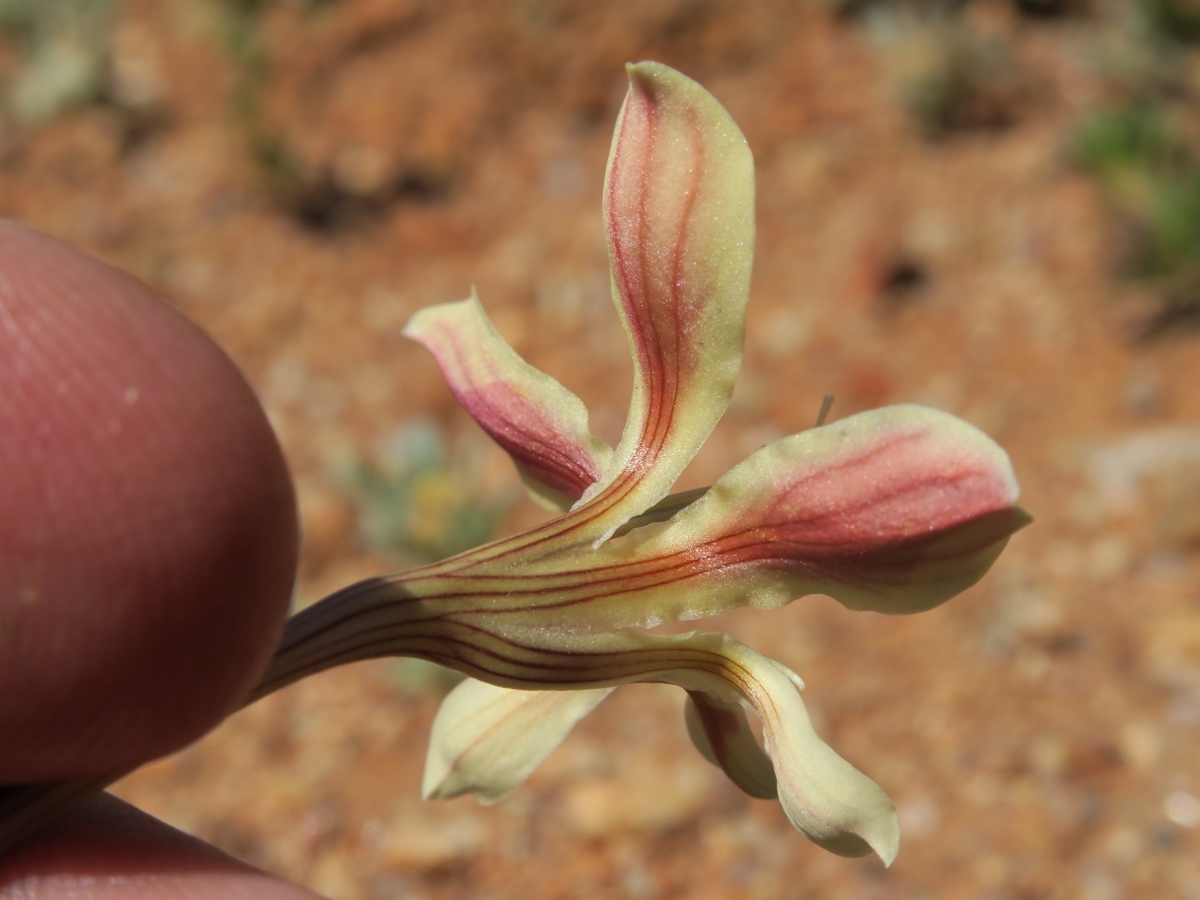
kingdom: Plantae
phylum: Tracheophyta
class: Liliopsida
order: Asparagales
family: Iridaceae
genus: Lapeirousia
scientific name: Lapeirousia fabricii
